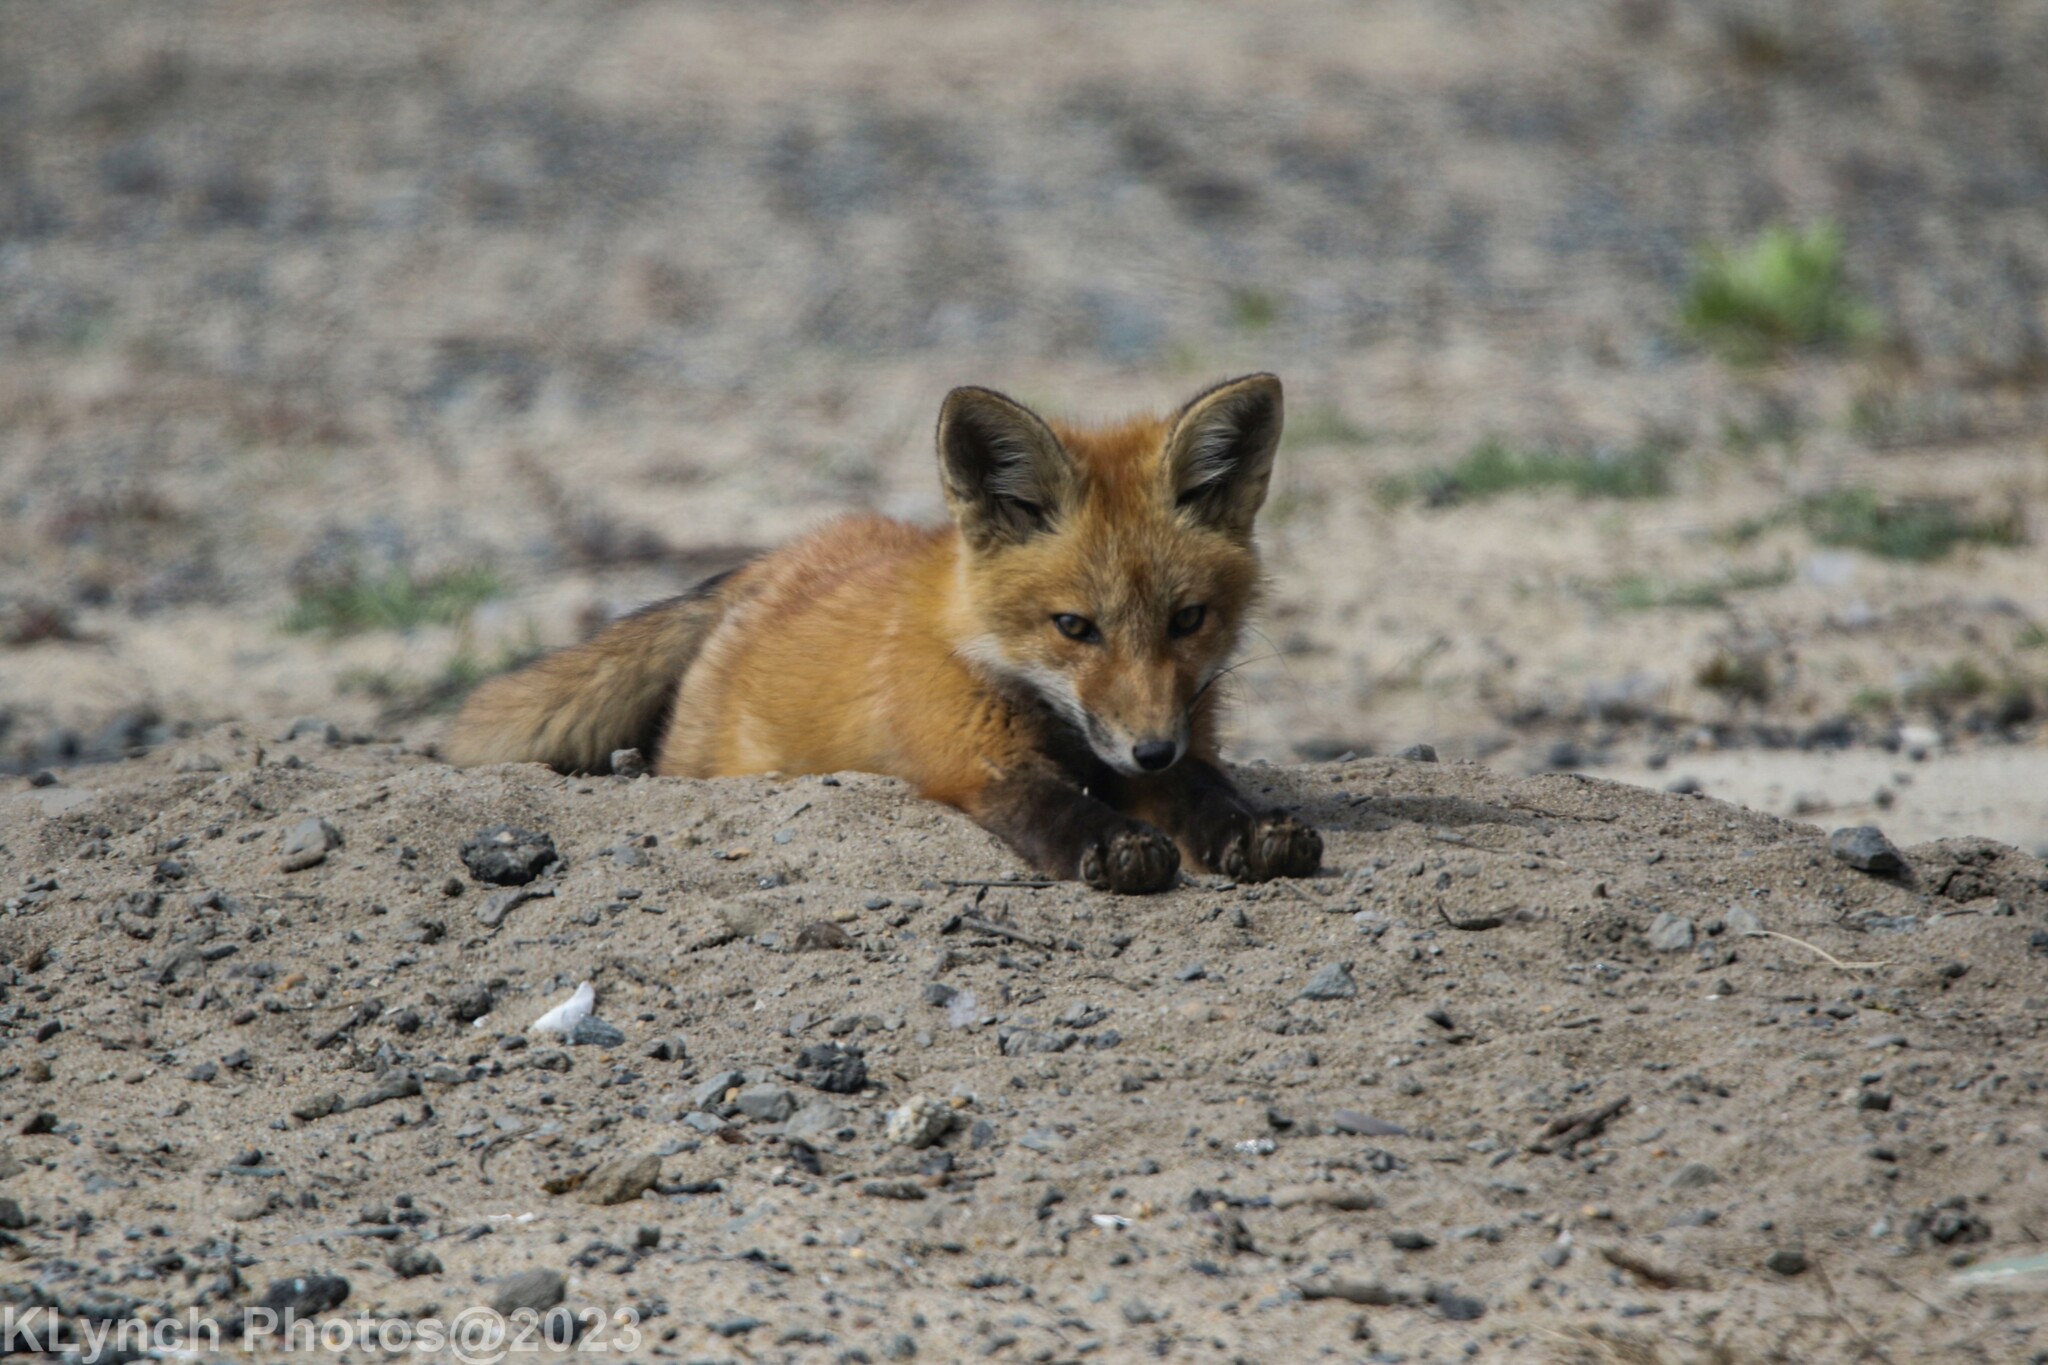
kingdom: Animalia
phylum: Chordata
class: Mammalia
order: Carnivora
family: Canidae
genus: Vulpes
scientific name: Vulpes vulpes
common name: Red fox
